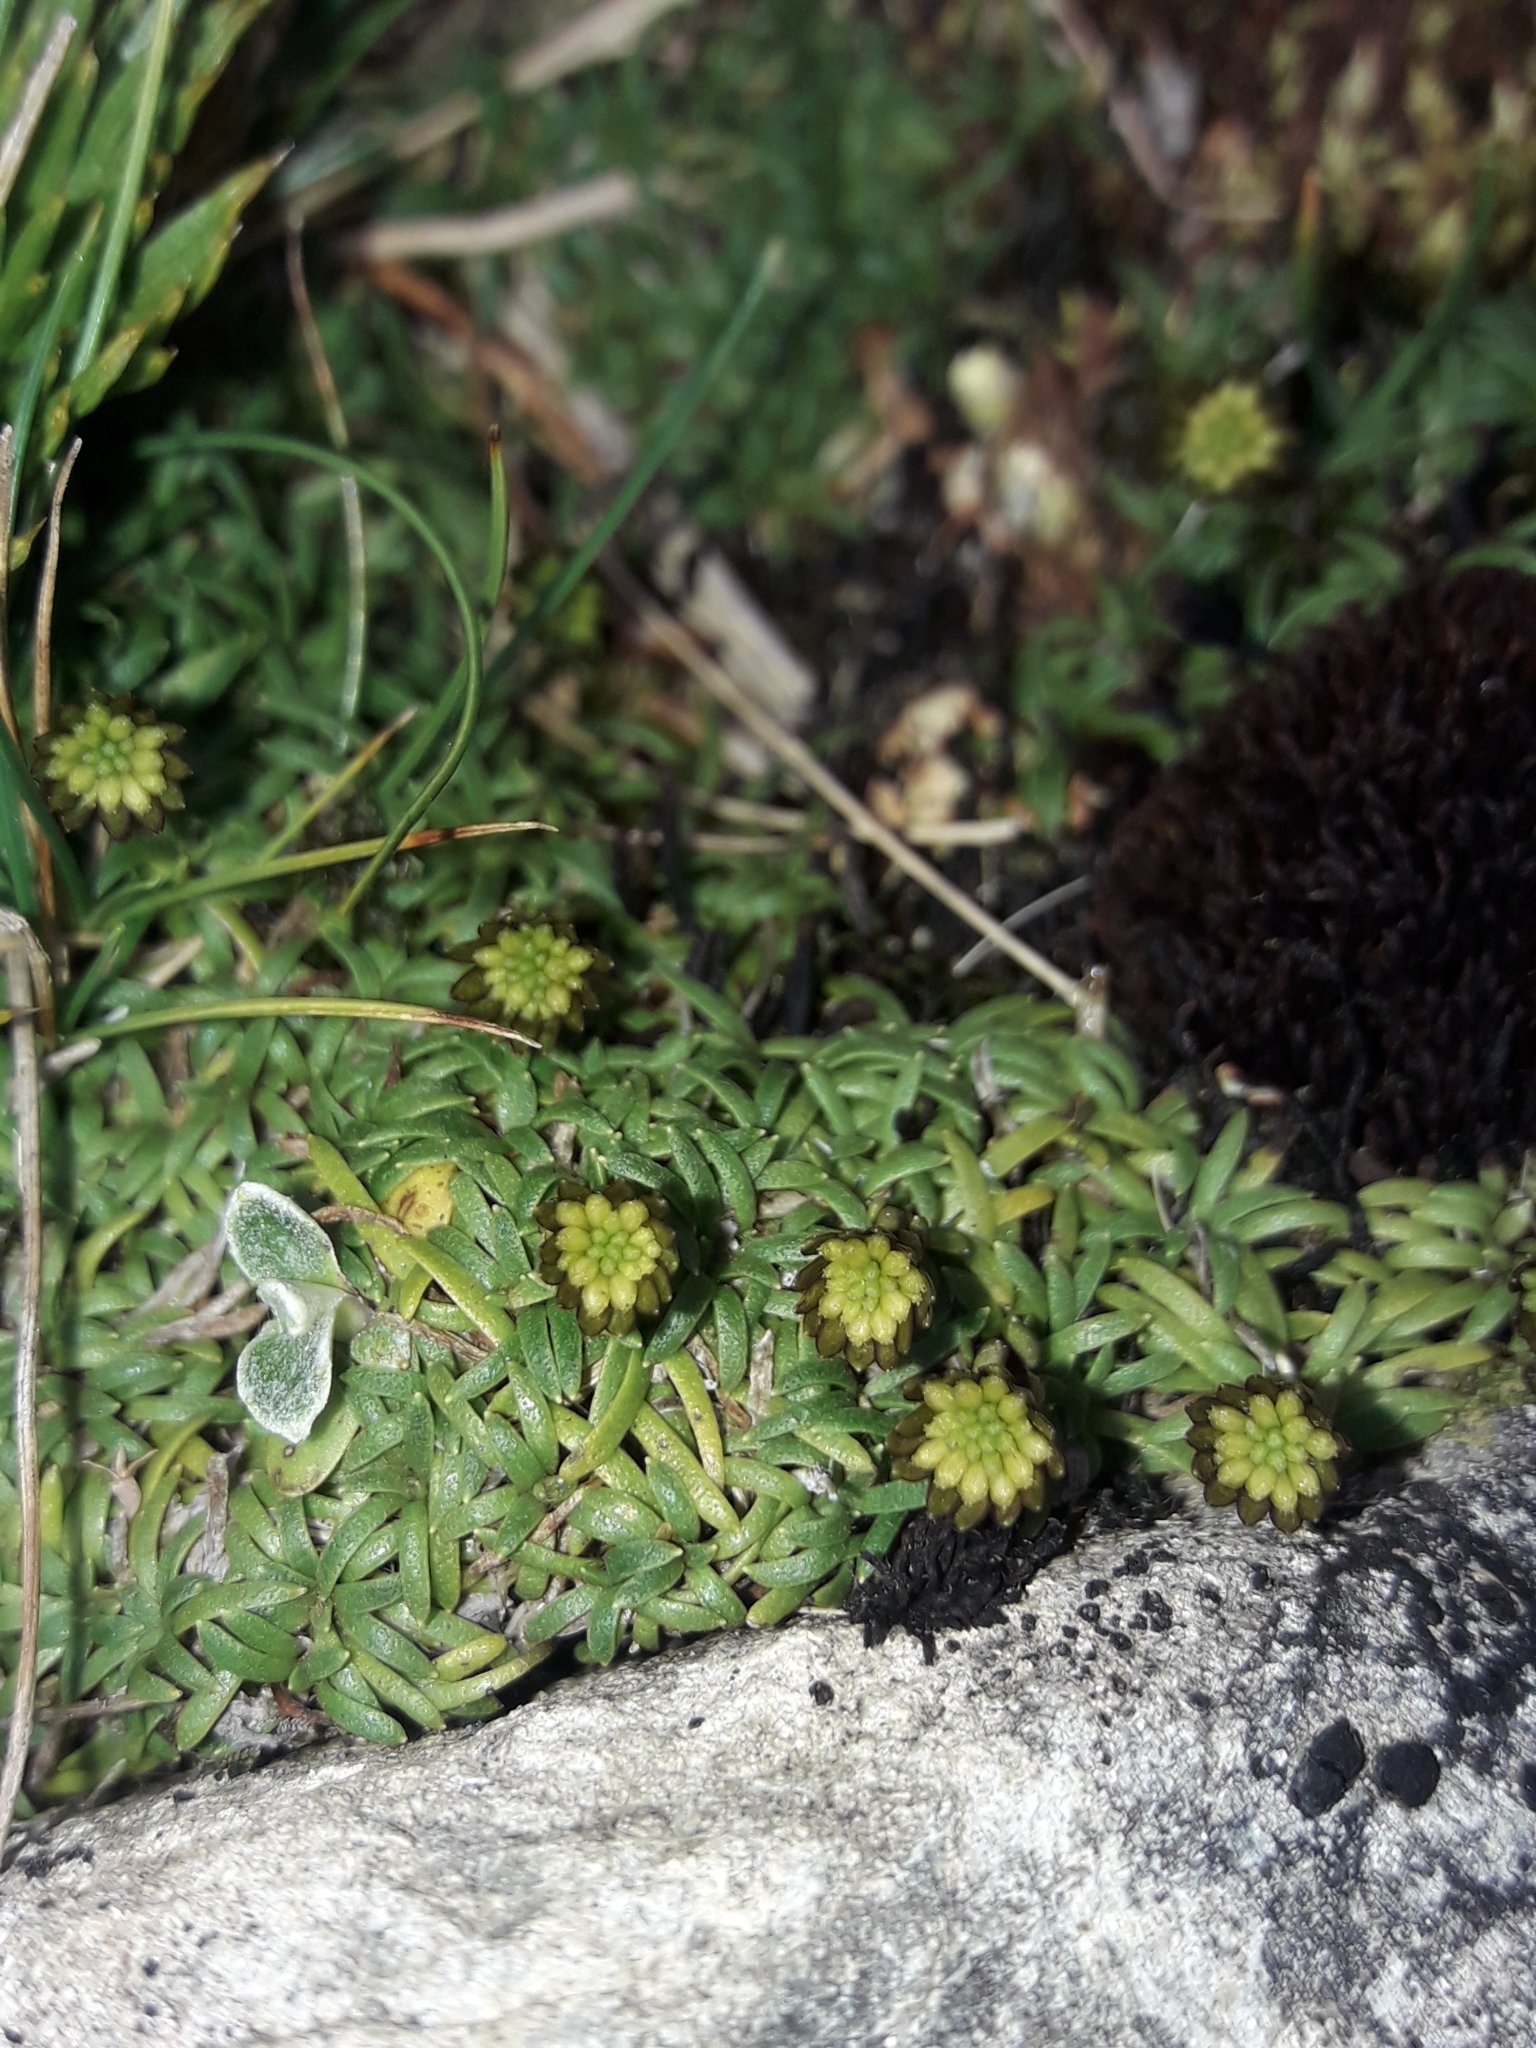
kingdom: Plantae
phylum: Tracheophyta
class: Magnoliopsida
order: Asterales
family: Asteraceae
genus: Abrotanella
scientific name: Abrotanella pusilla
